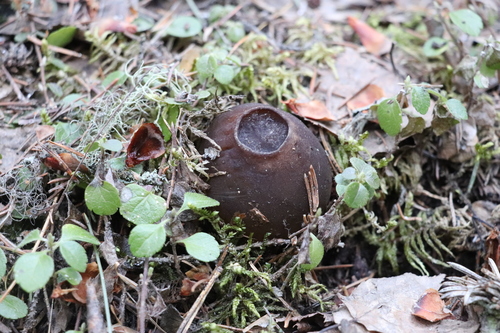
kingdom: Fungi
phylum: Ascomycota
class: Pezizomycetes
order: Pezizales
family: Sarcosomataceae
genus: Sarcosoma
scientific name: Sarcosoma globosum
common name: Charred-pancake cup
